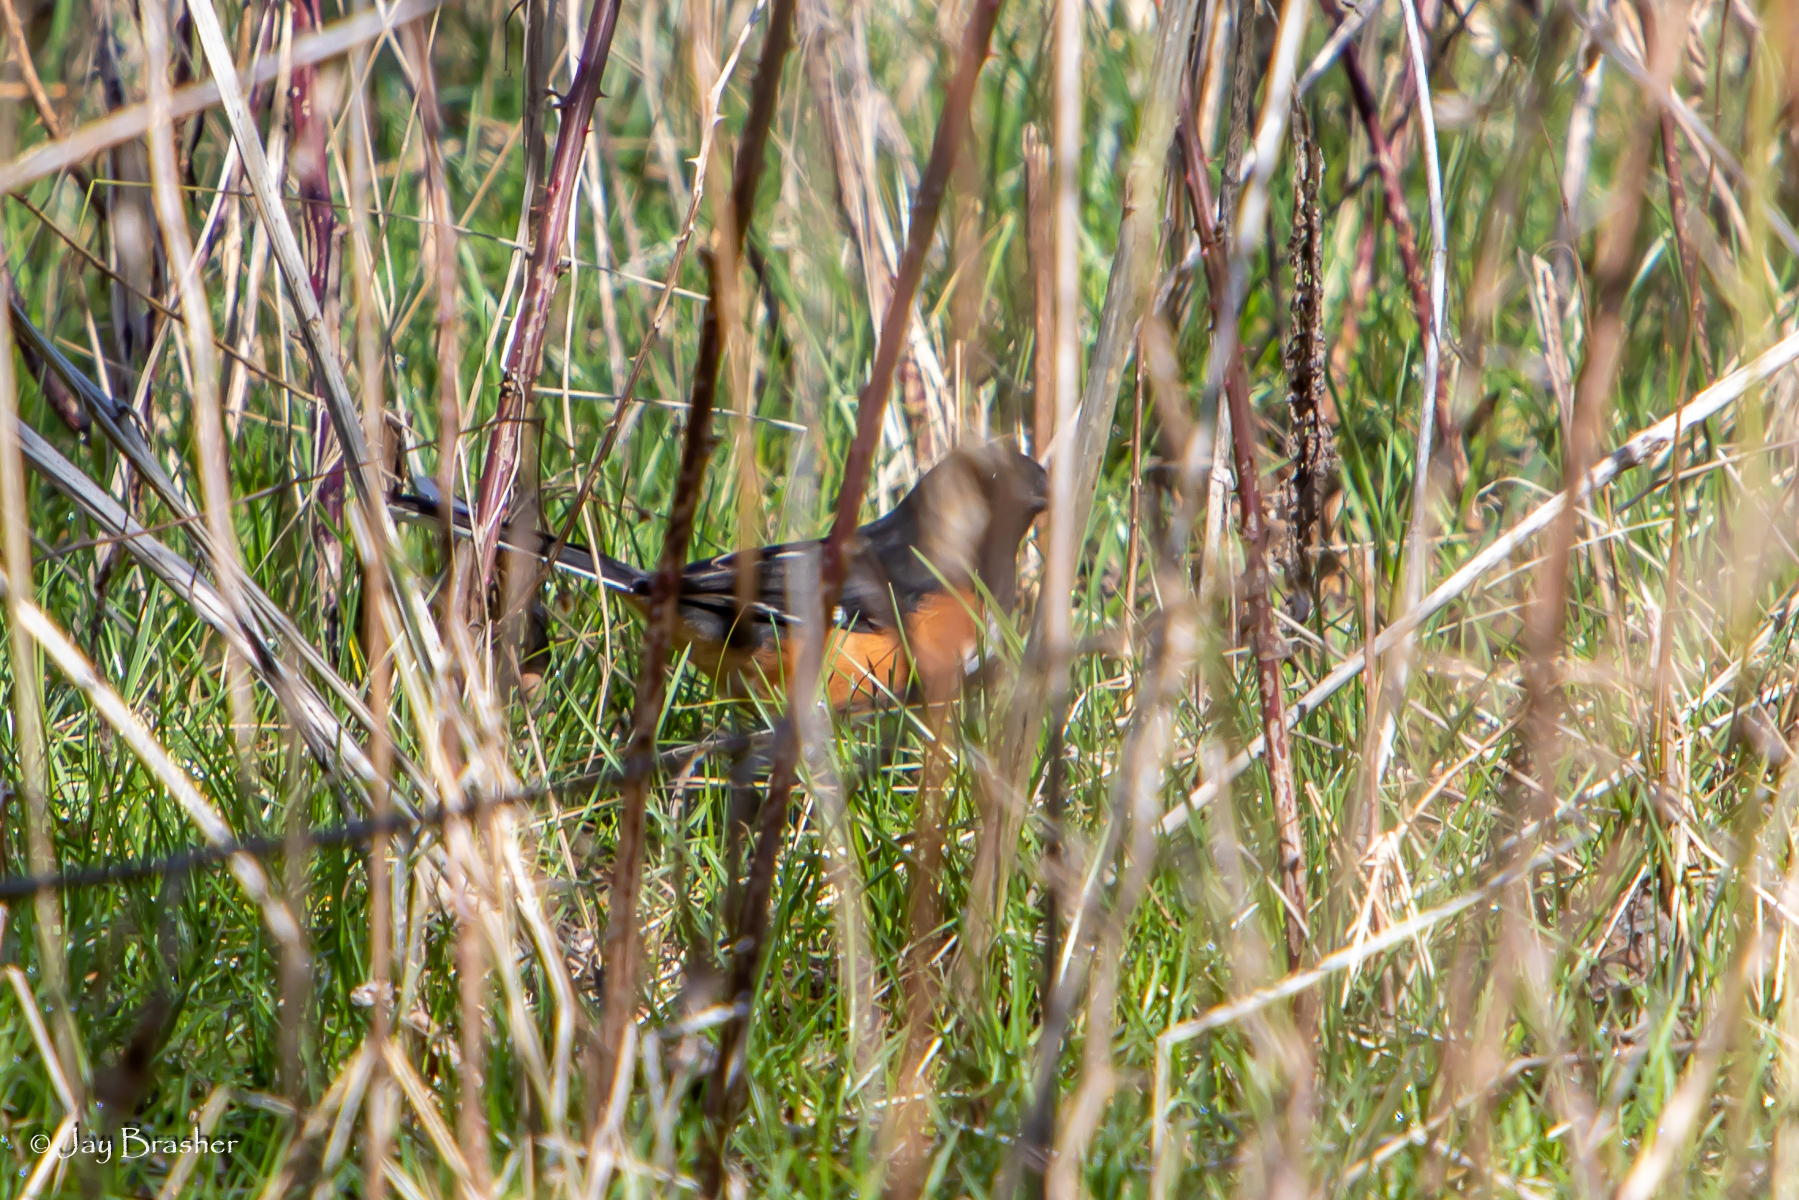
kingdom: Animalia
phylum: Chordata
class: Aves
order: Passeriformes
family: Passerellidae
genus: Pipilo
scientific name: Pipilo erythrophthalmus
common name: Eastern towhee
